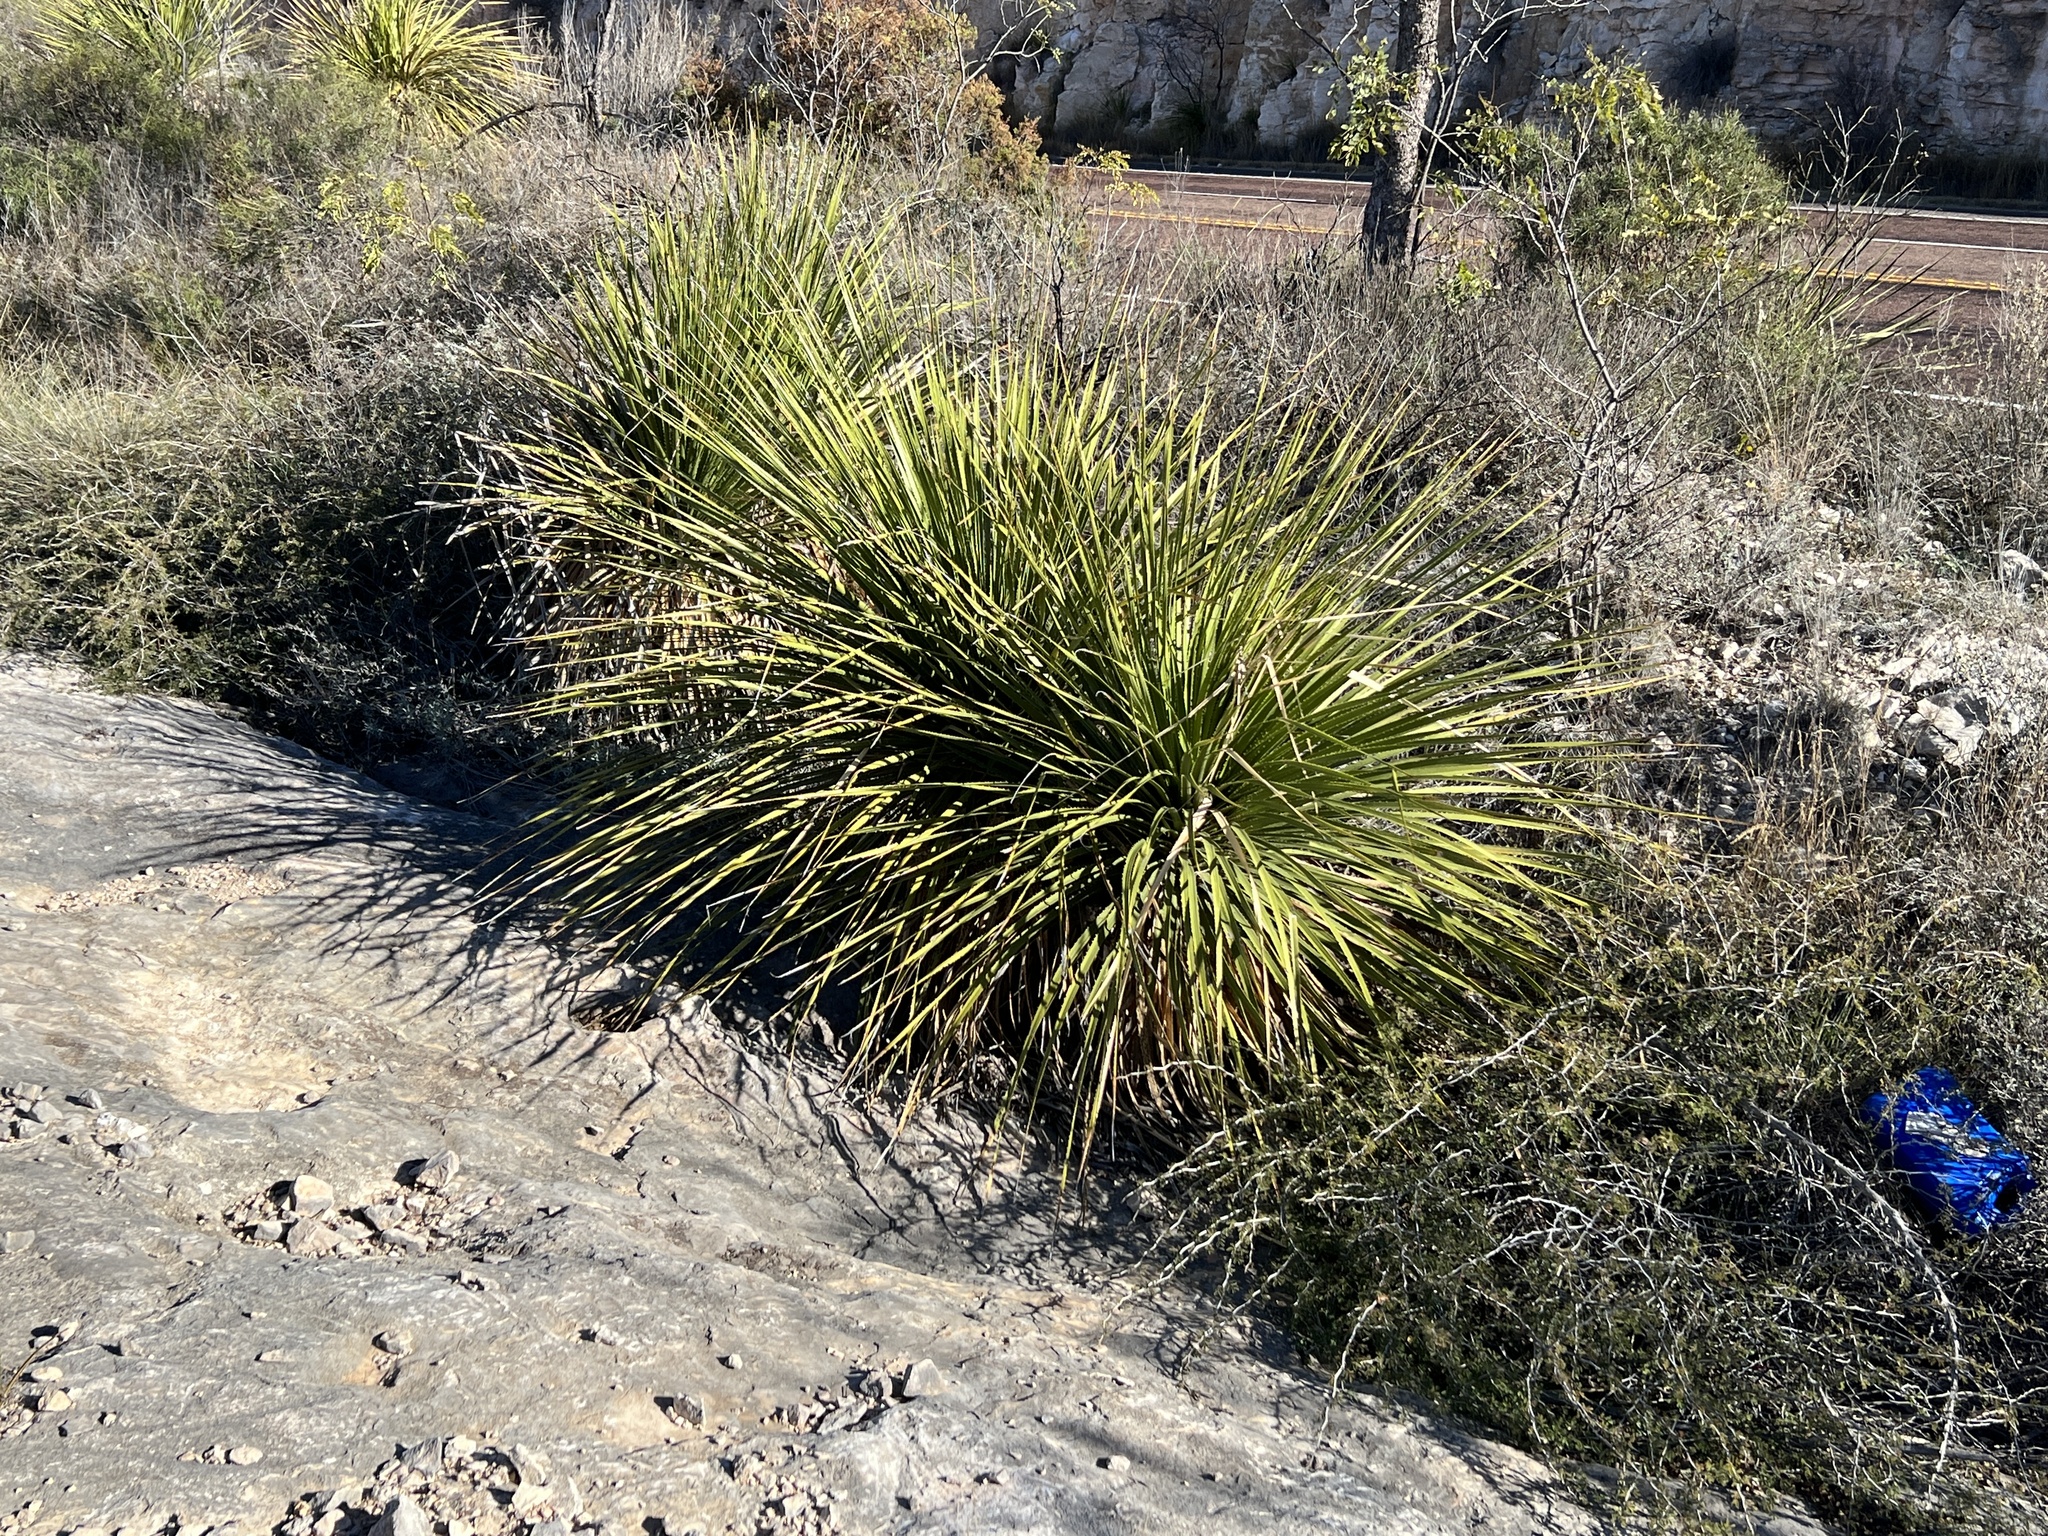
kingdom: Plantae
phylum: Tracheophyta
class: Liliopsida
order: Asparagales
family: Asparagaceae
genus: Dasylirion
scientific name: Dasylirion texanum
